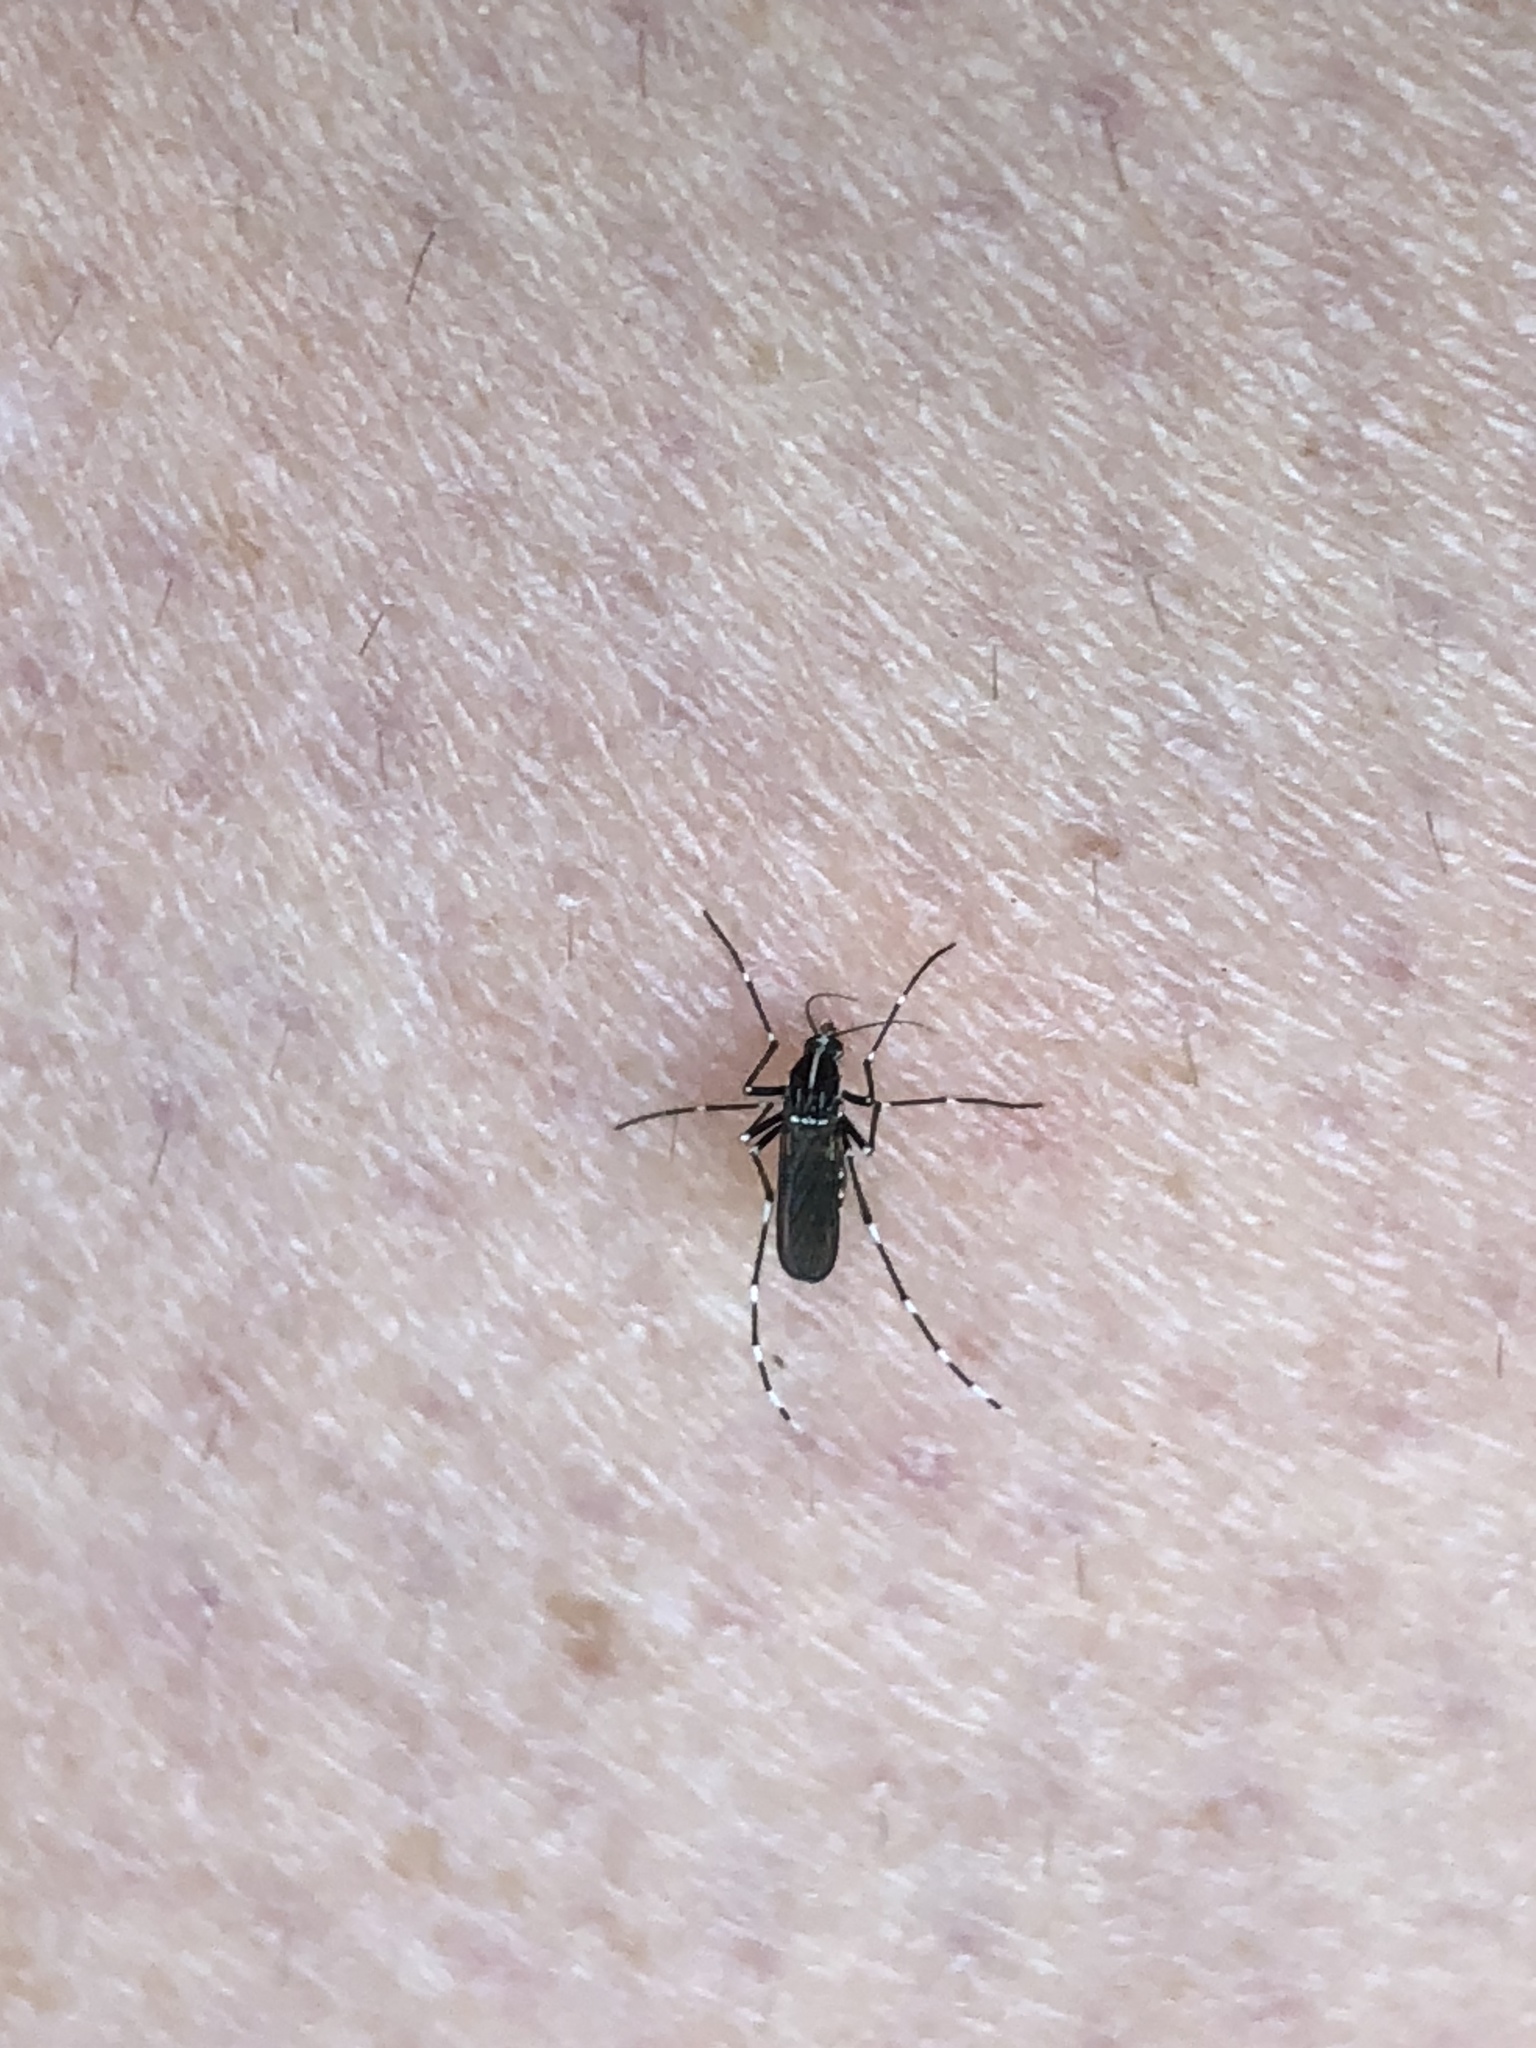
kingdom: Animalia
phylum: Arthropoda
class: Insecta
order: Diptera
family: Culicidae
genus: Aedes
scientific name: Aedes albopictus
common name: Tiger mosquito
